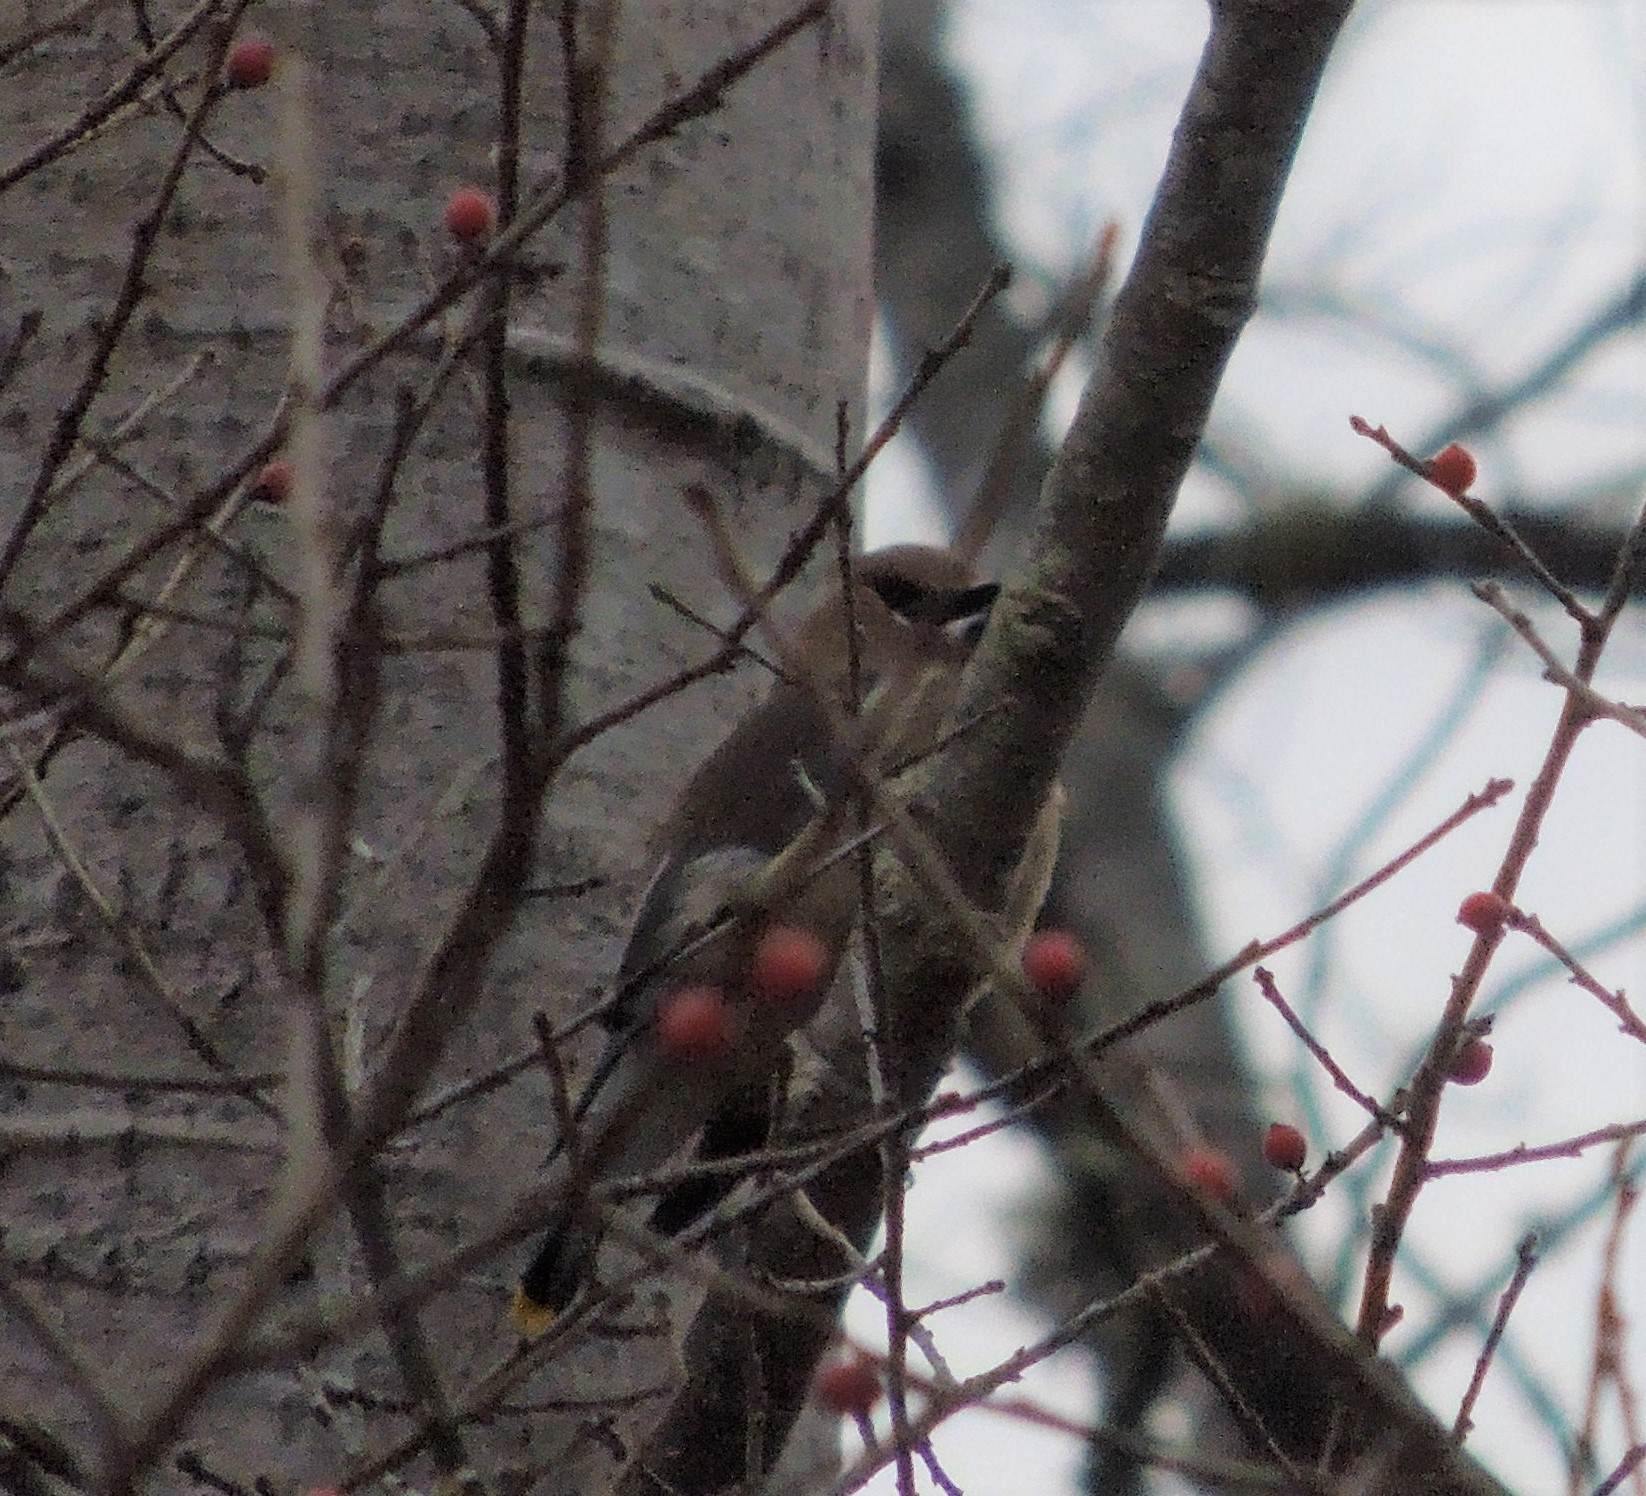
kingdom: Animalia
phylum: Chordata
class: Aves
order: Passeriformes
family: Bombycillidae
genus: Bombycilla
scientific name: Bombycilla cedrorum
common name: Cedar waxwing
